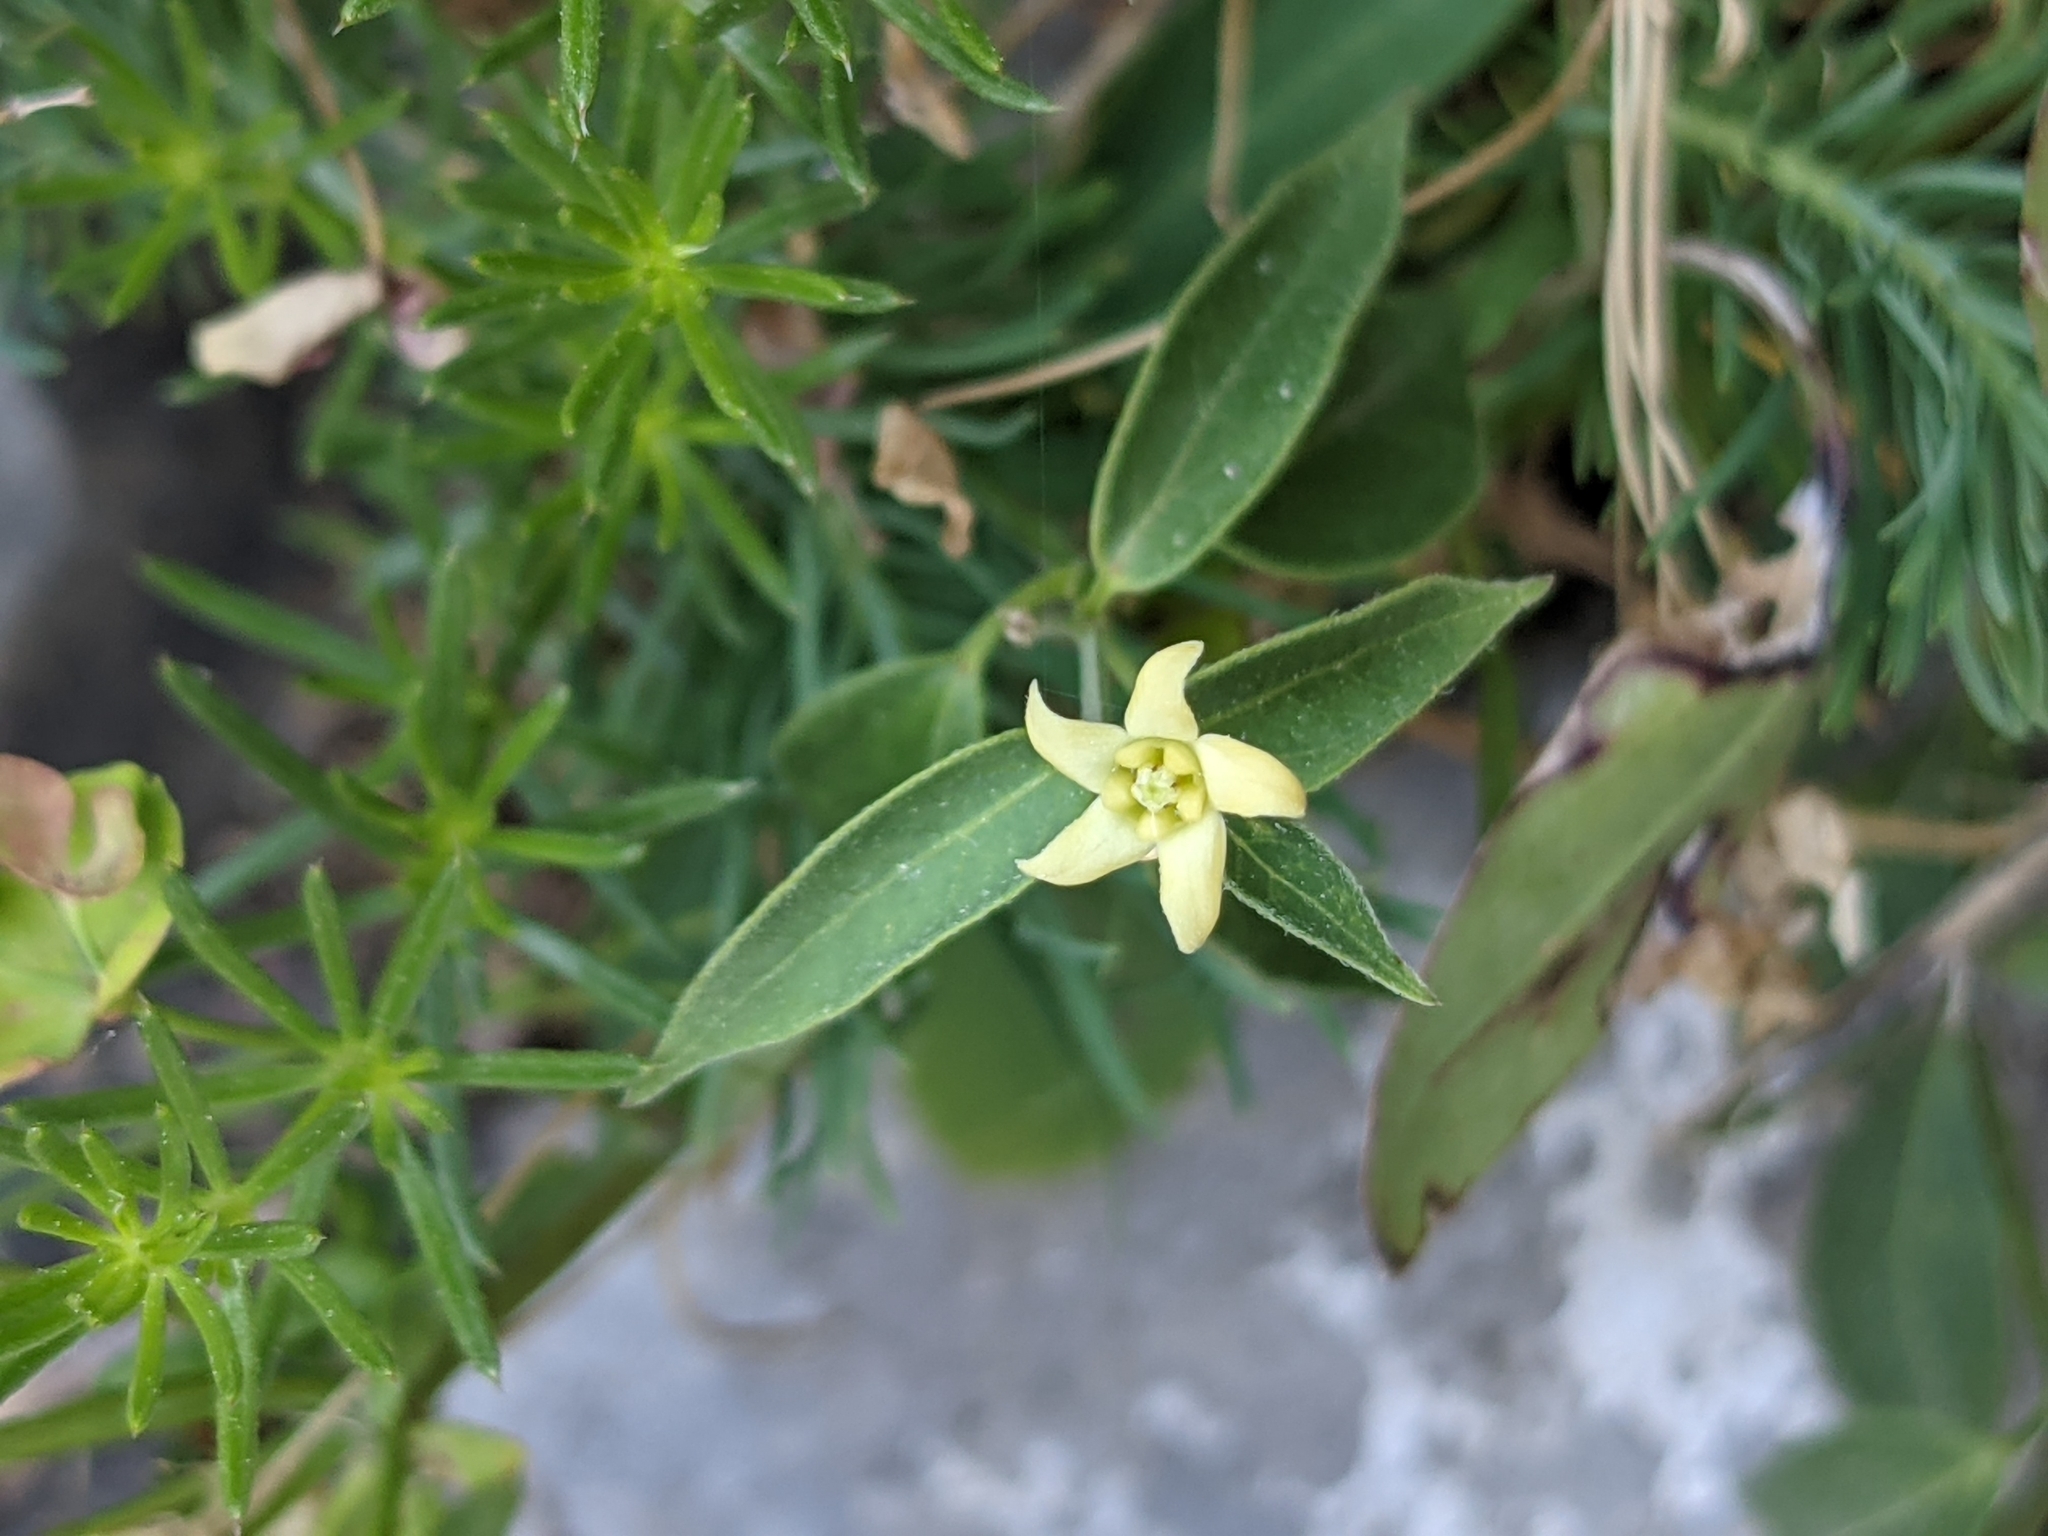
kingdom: Plantae
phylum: Tracheophyta
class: Magnoliopsida
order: Gentianales
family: Apocynaceae
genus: Vincetoxicum
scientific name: Vincetoxicum hirundinaria
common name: White swallowwort
